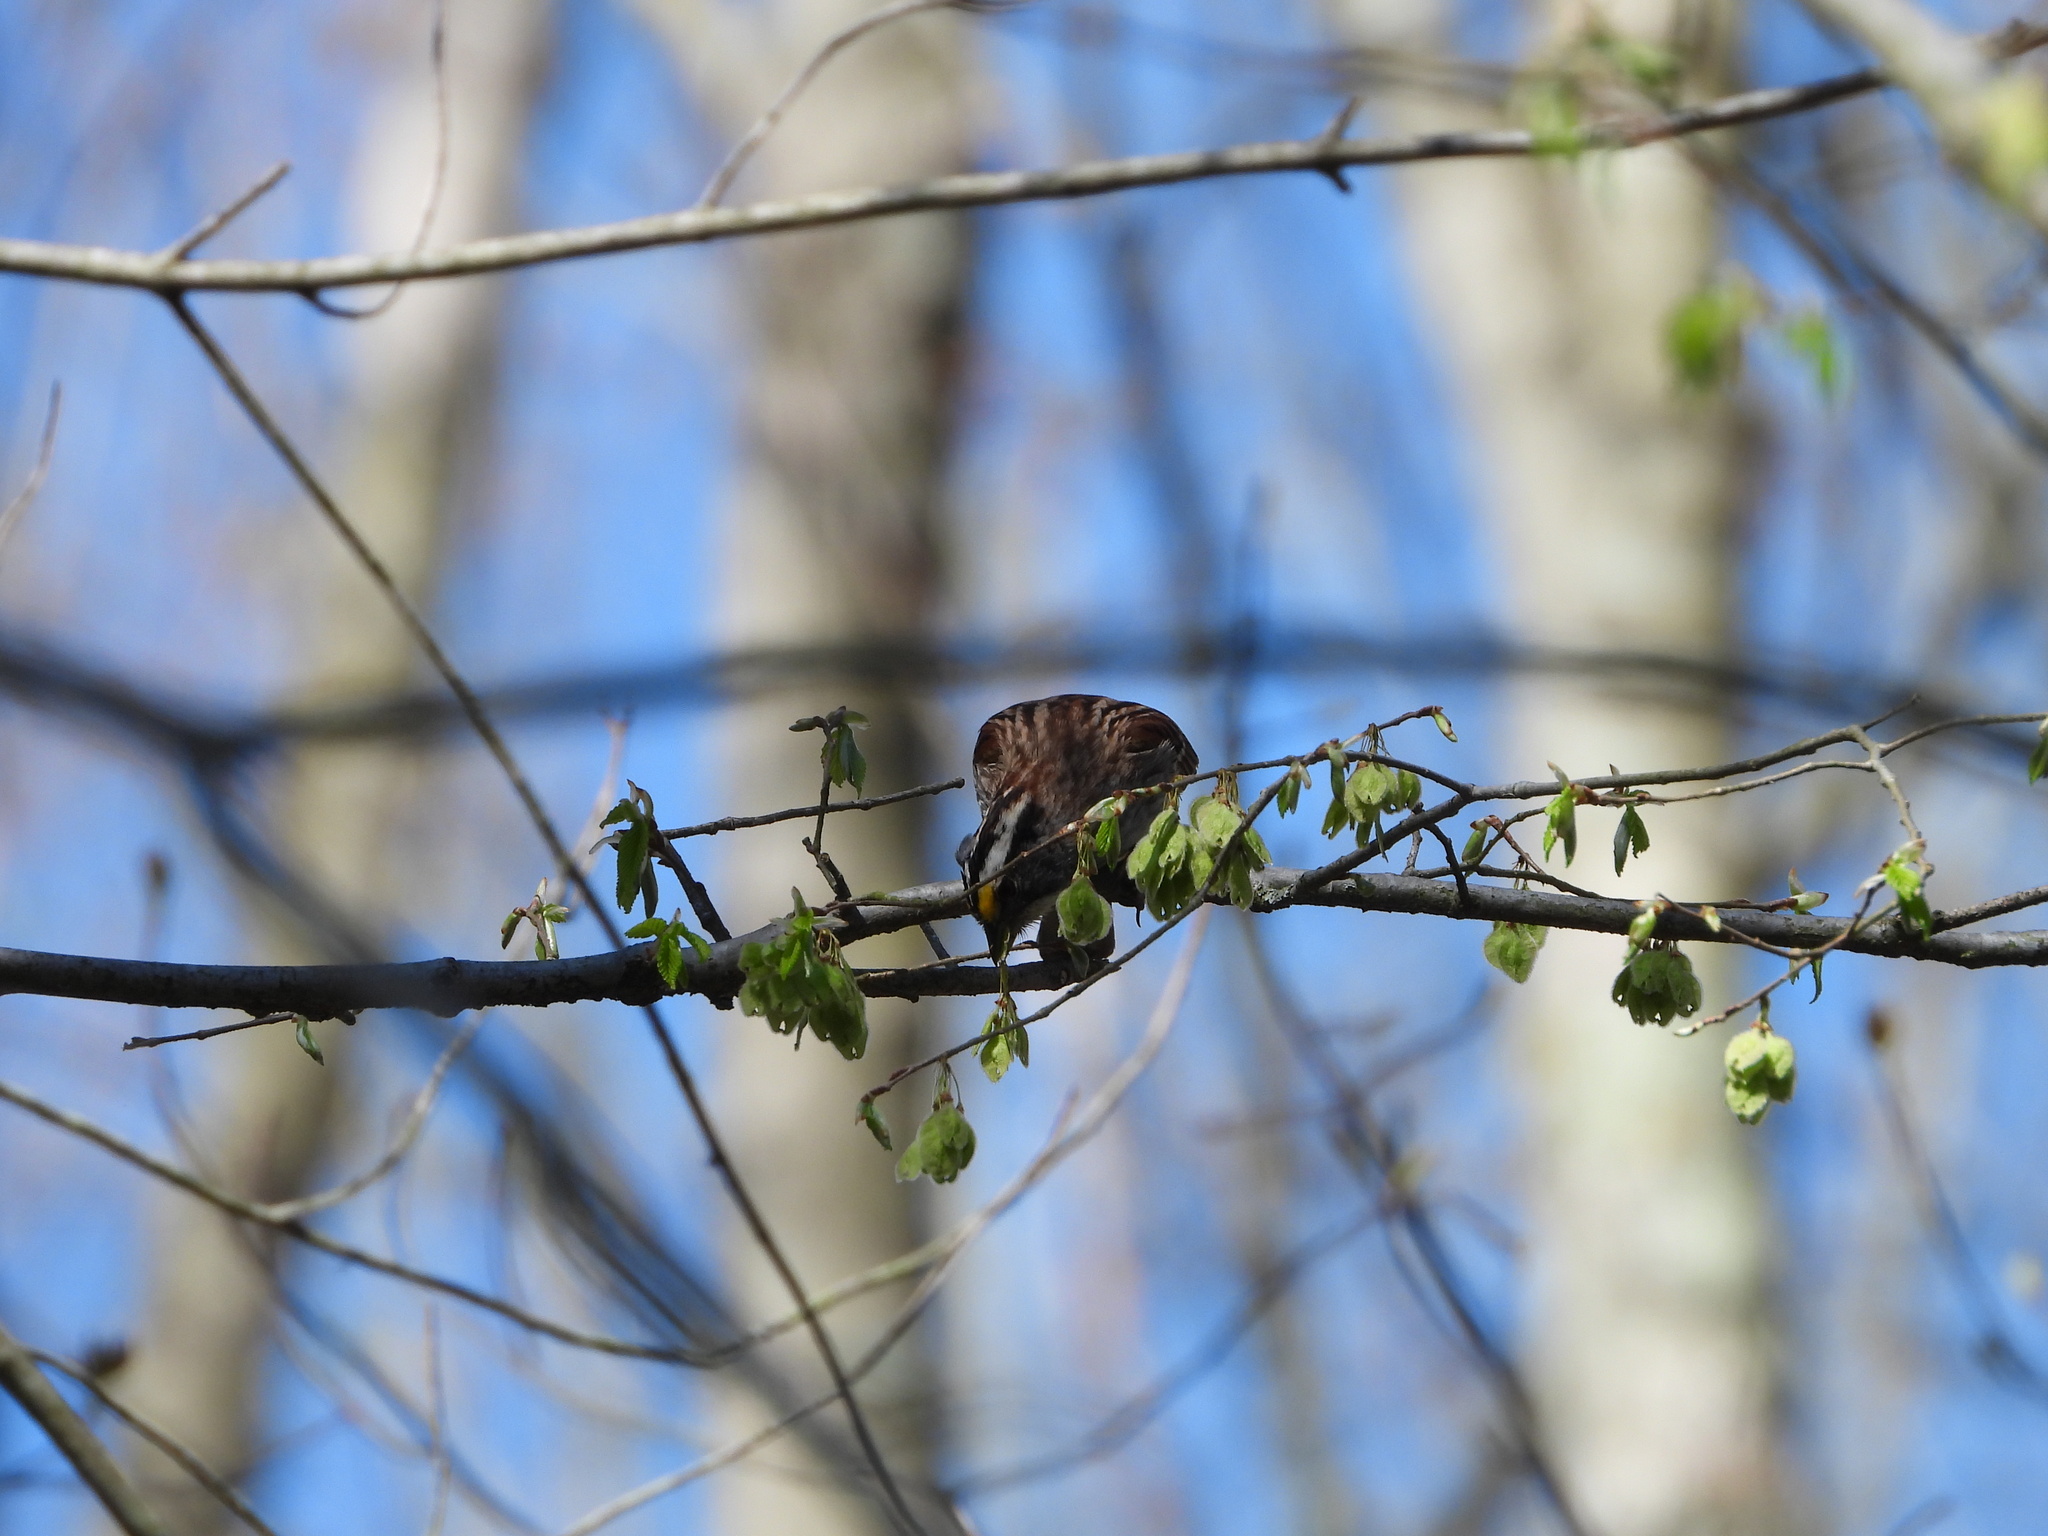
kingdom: Animalia
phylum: Chordata
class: Aves
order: Passeriformes
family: Passerellidae
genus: Zonotrichia
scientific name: Zonotrichia albicollis
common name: White-throated sparrow
